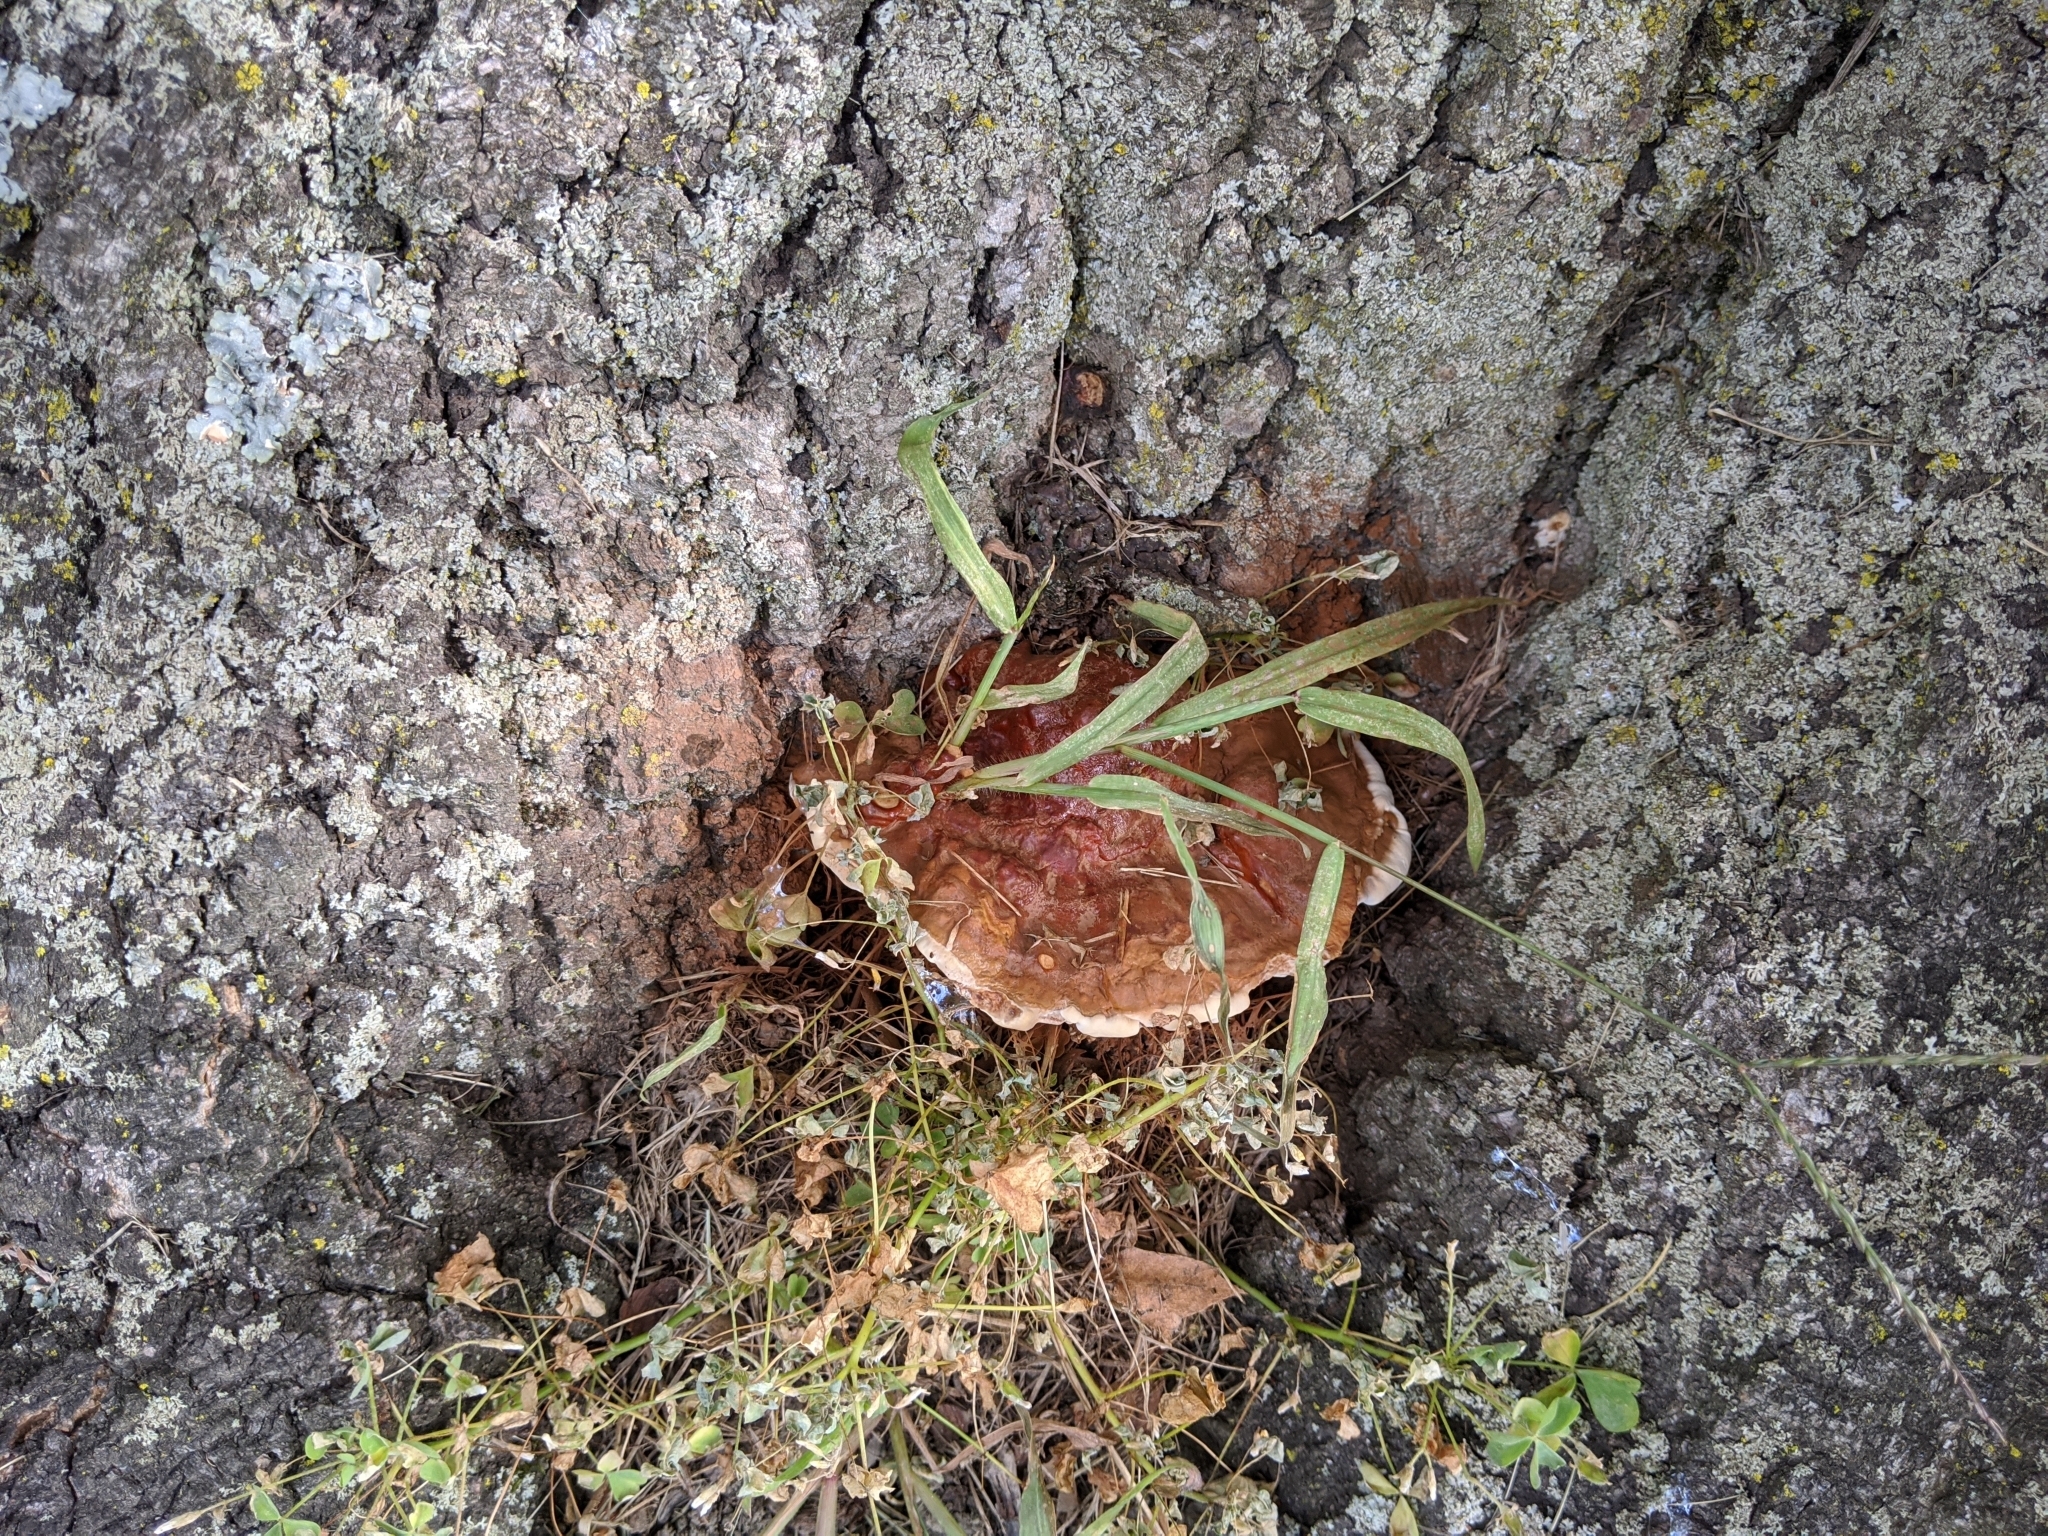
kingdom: Fungi
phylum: Basidiomycota
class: Agaricomycetes
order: Polyporales
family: Polyporaceae
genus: Ganoderma
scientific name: Ganoderma resinaceum
